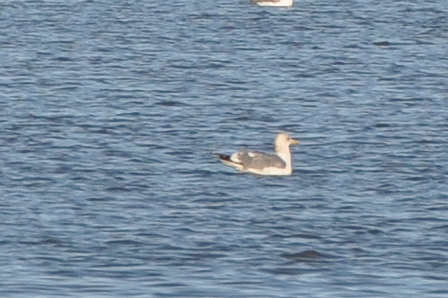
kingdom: Animalia
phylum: Chordata
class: Aves
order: Charadriiformes
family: Laridae
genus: Larus
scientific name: Larus californicus
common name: California gull
